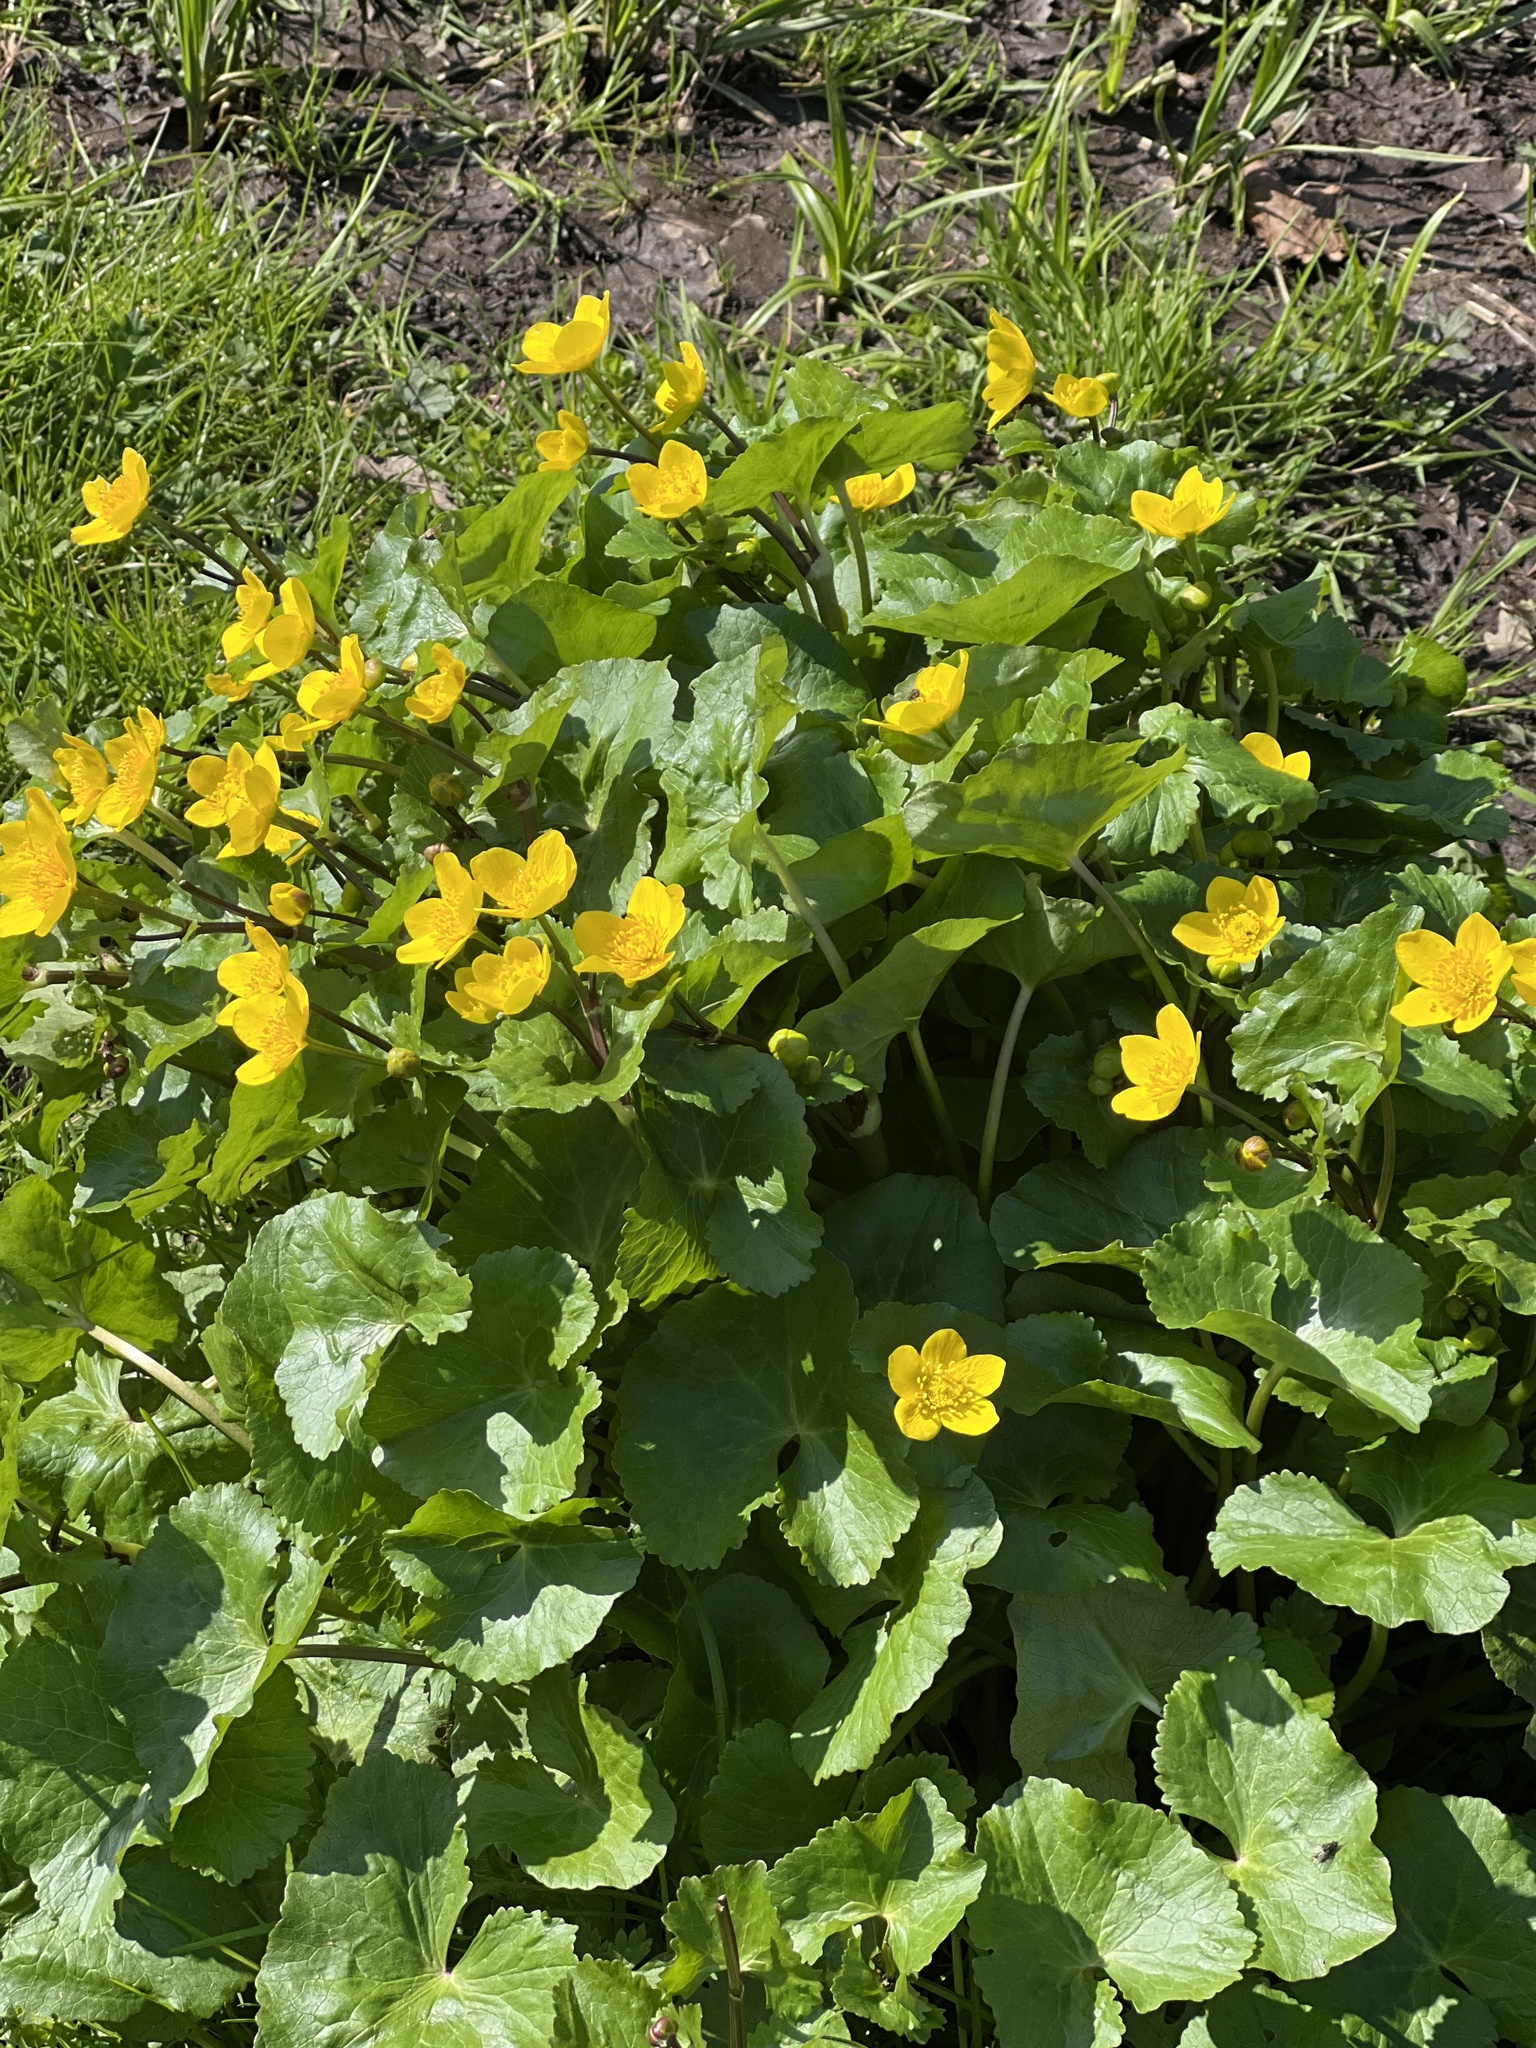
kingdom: Plantae
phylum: Tracheophyta
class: Magnoliopsida
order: Ranunculales
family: Ranunculaceae
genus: Caltha
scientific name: Caltha palustris
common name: Marsh marigold
